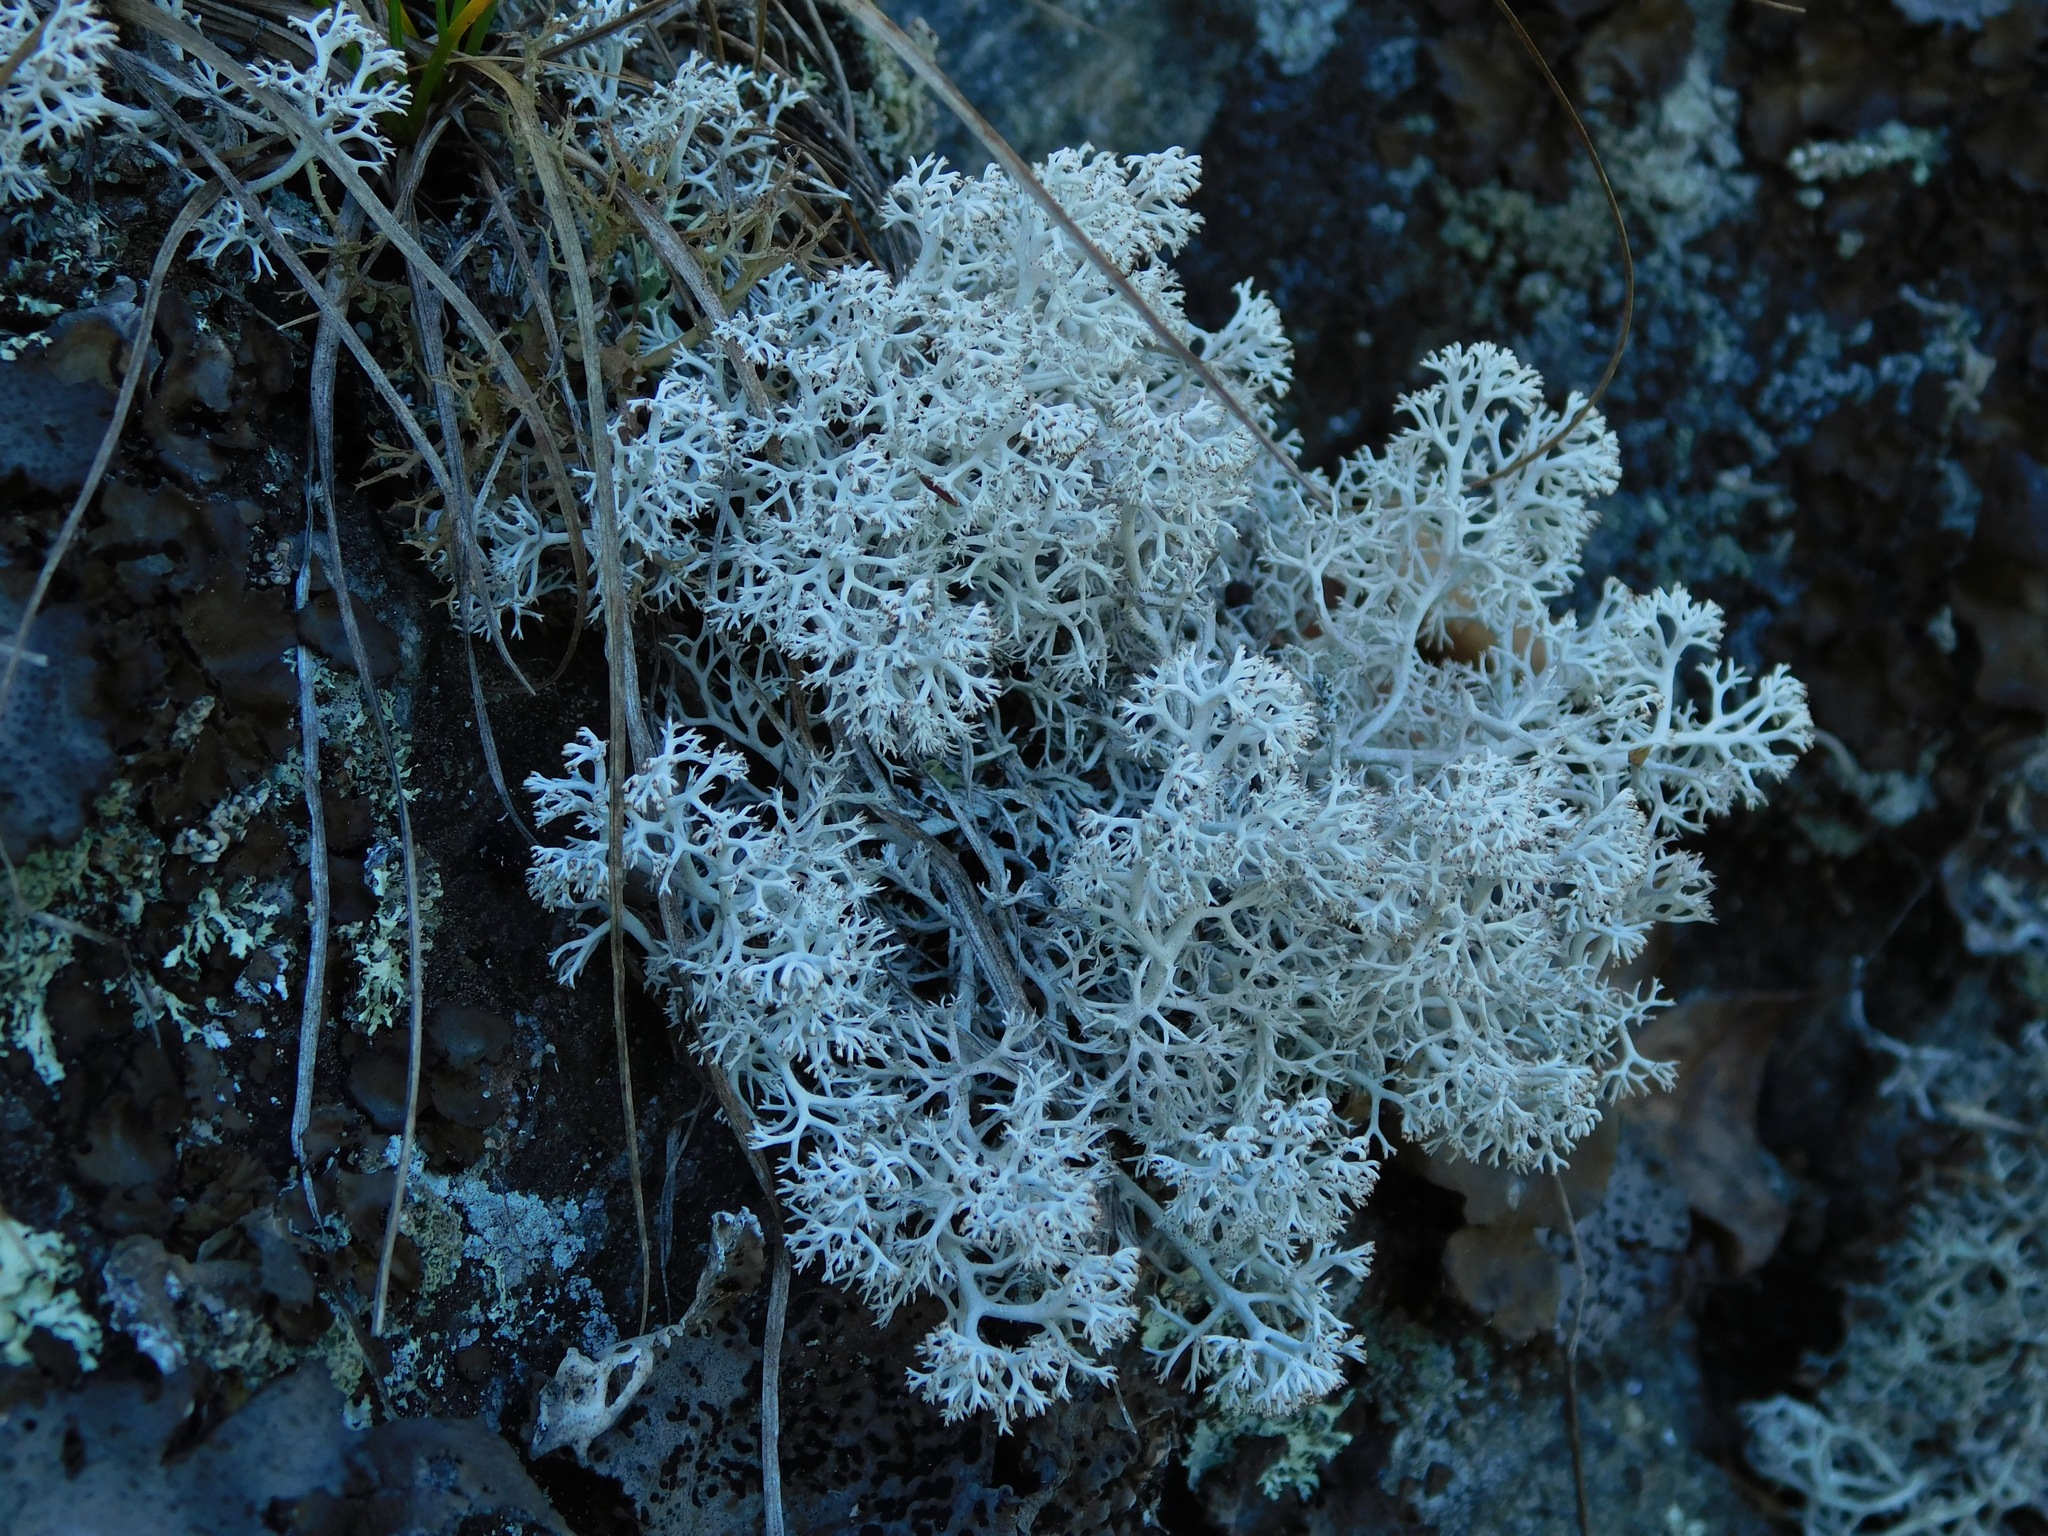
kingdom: Fungi
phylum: Ascomycota
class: Lecanoromycetes
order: Lecanorales
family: Cladoniaceae
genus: Cladonia
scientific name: Cladonia rangiferina
